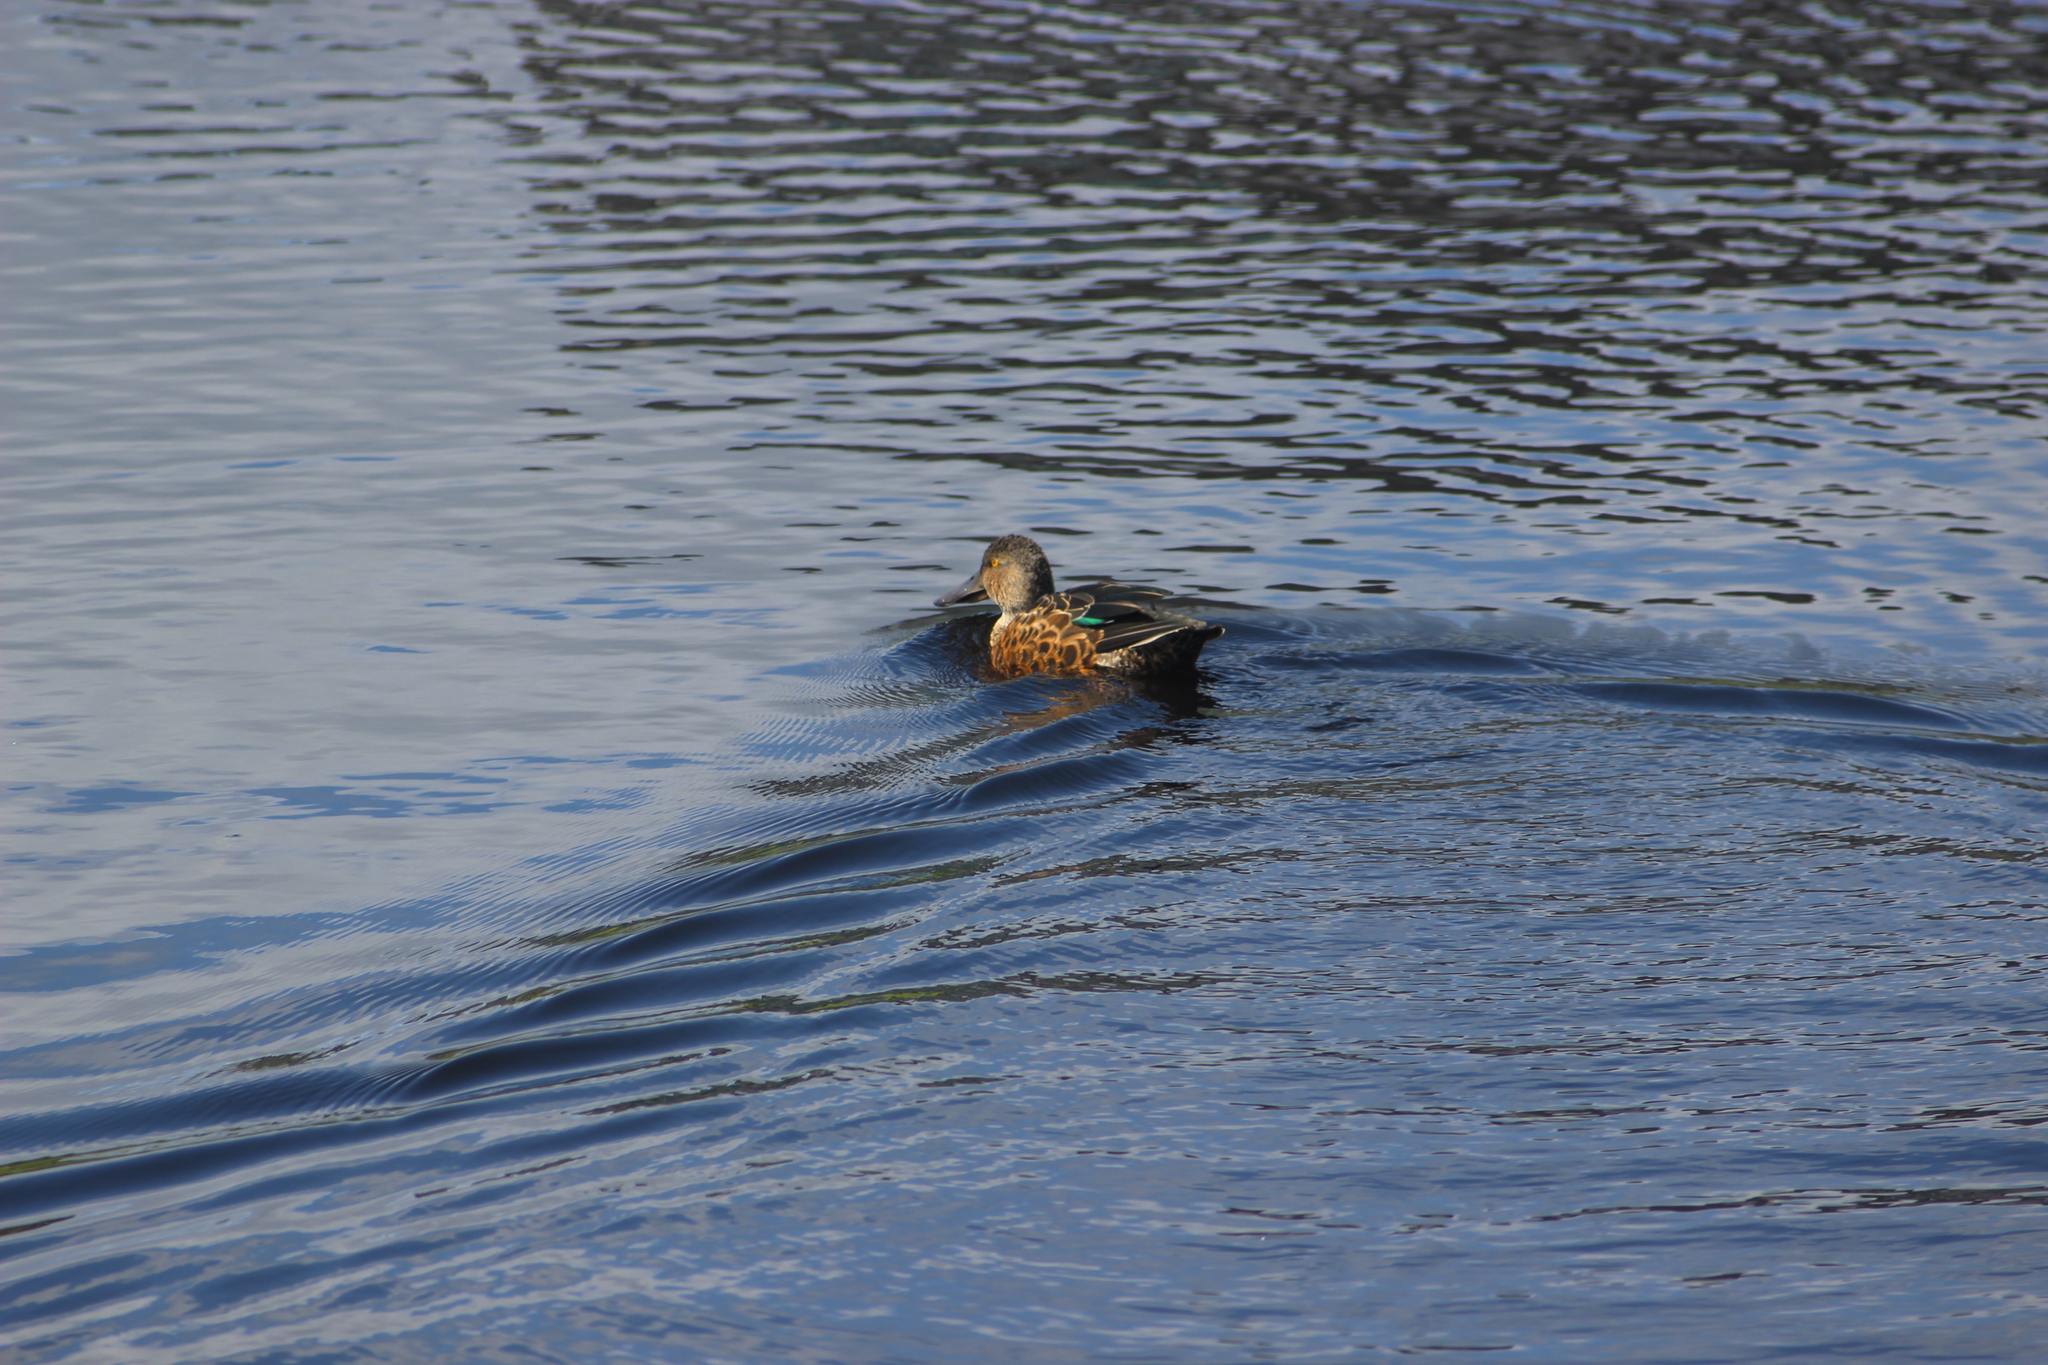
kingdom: Animalia
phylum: Chordata
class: Aves
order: Anseriformes
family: Anatidae
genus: Spatula
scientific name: Spatula rhynchotis
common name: Australian shoveler
